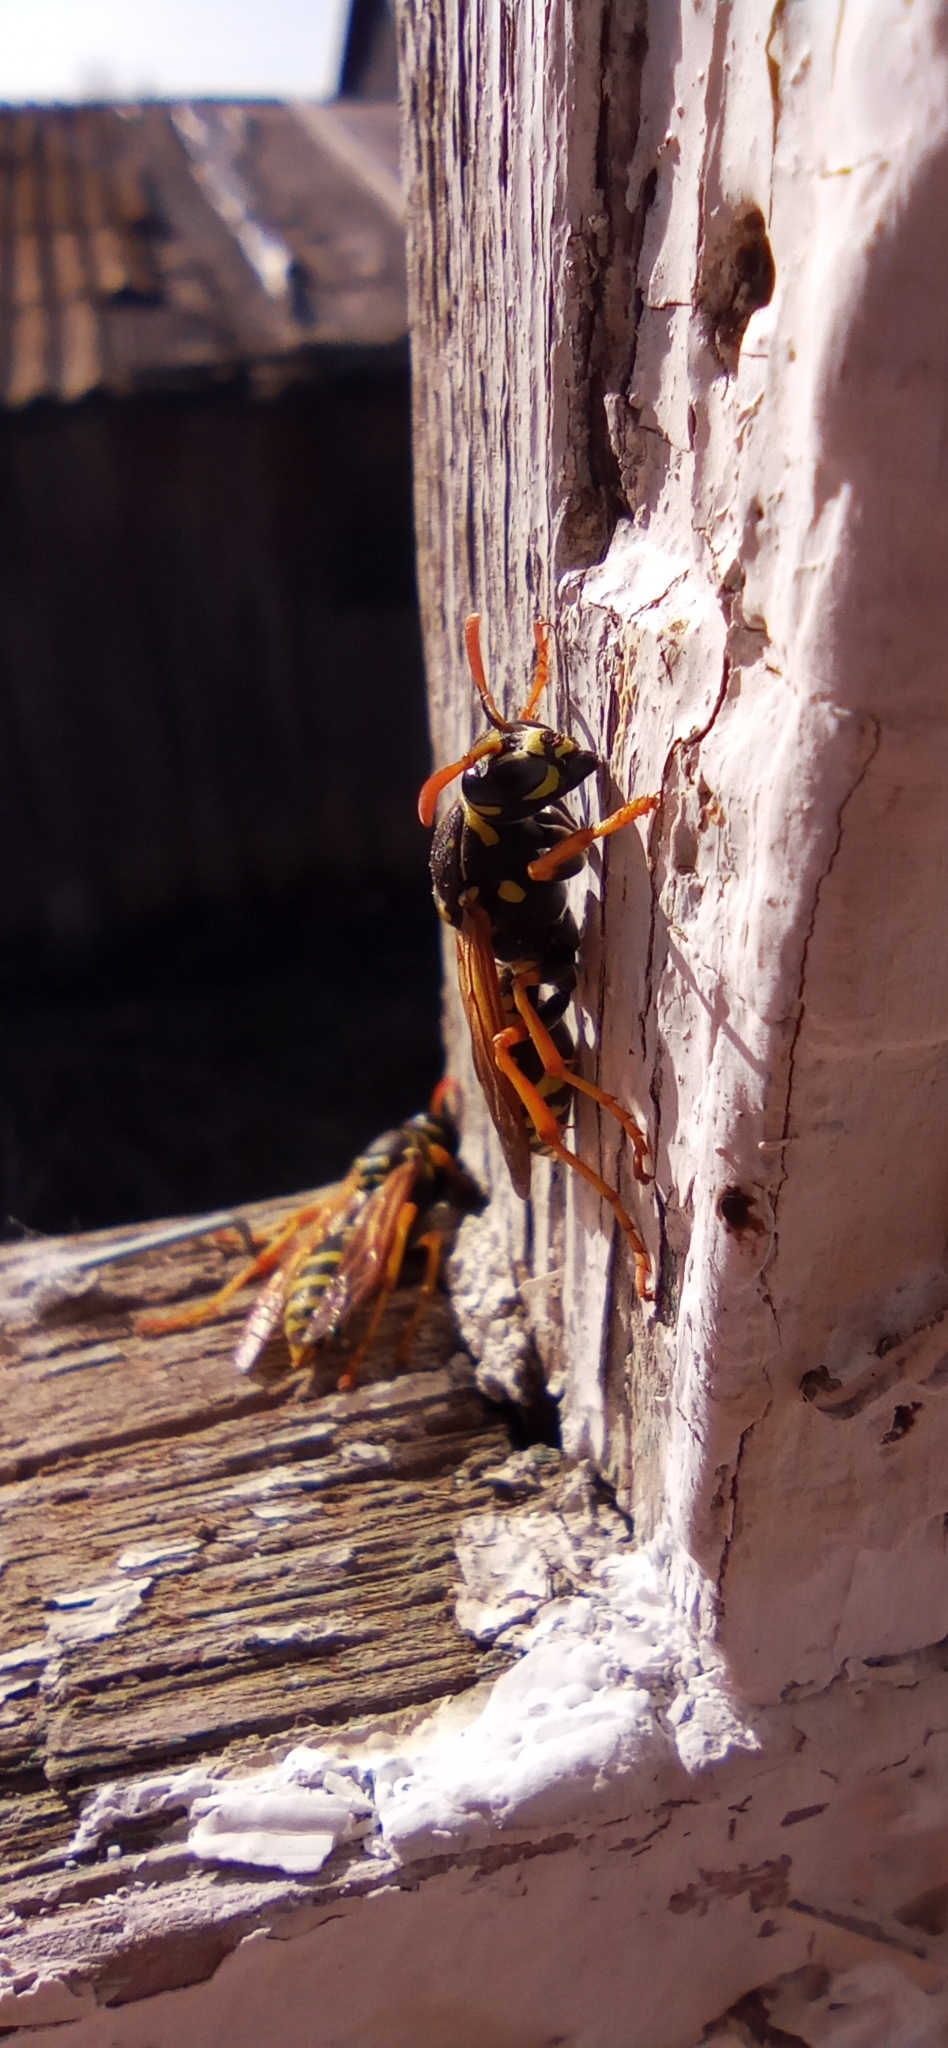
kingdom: Animalia
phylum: Arthropoda
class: Insecta
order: Hymenoptera
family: Eumenidae
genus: Polistes
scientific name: Polistes nimpha
